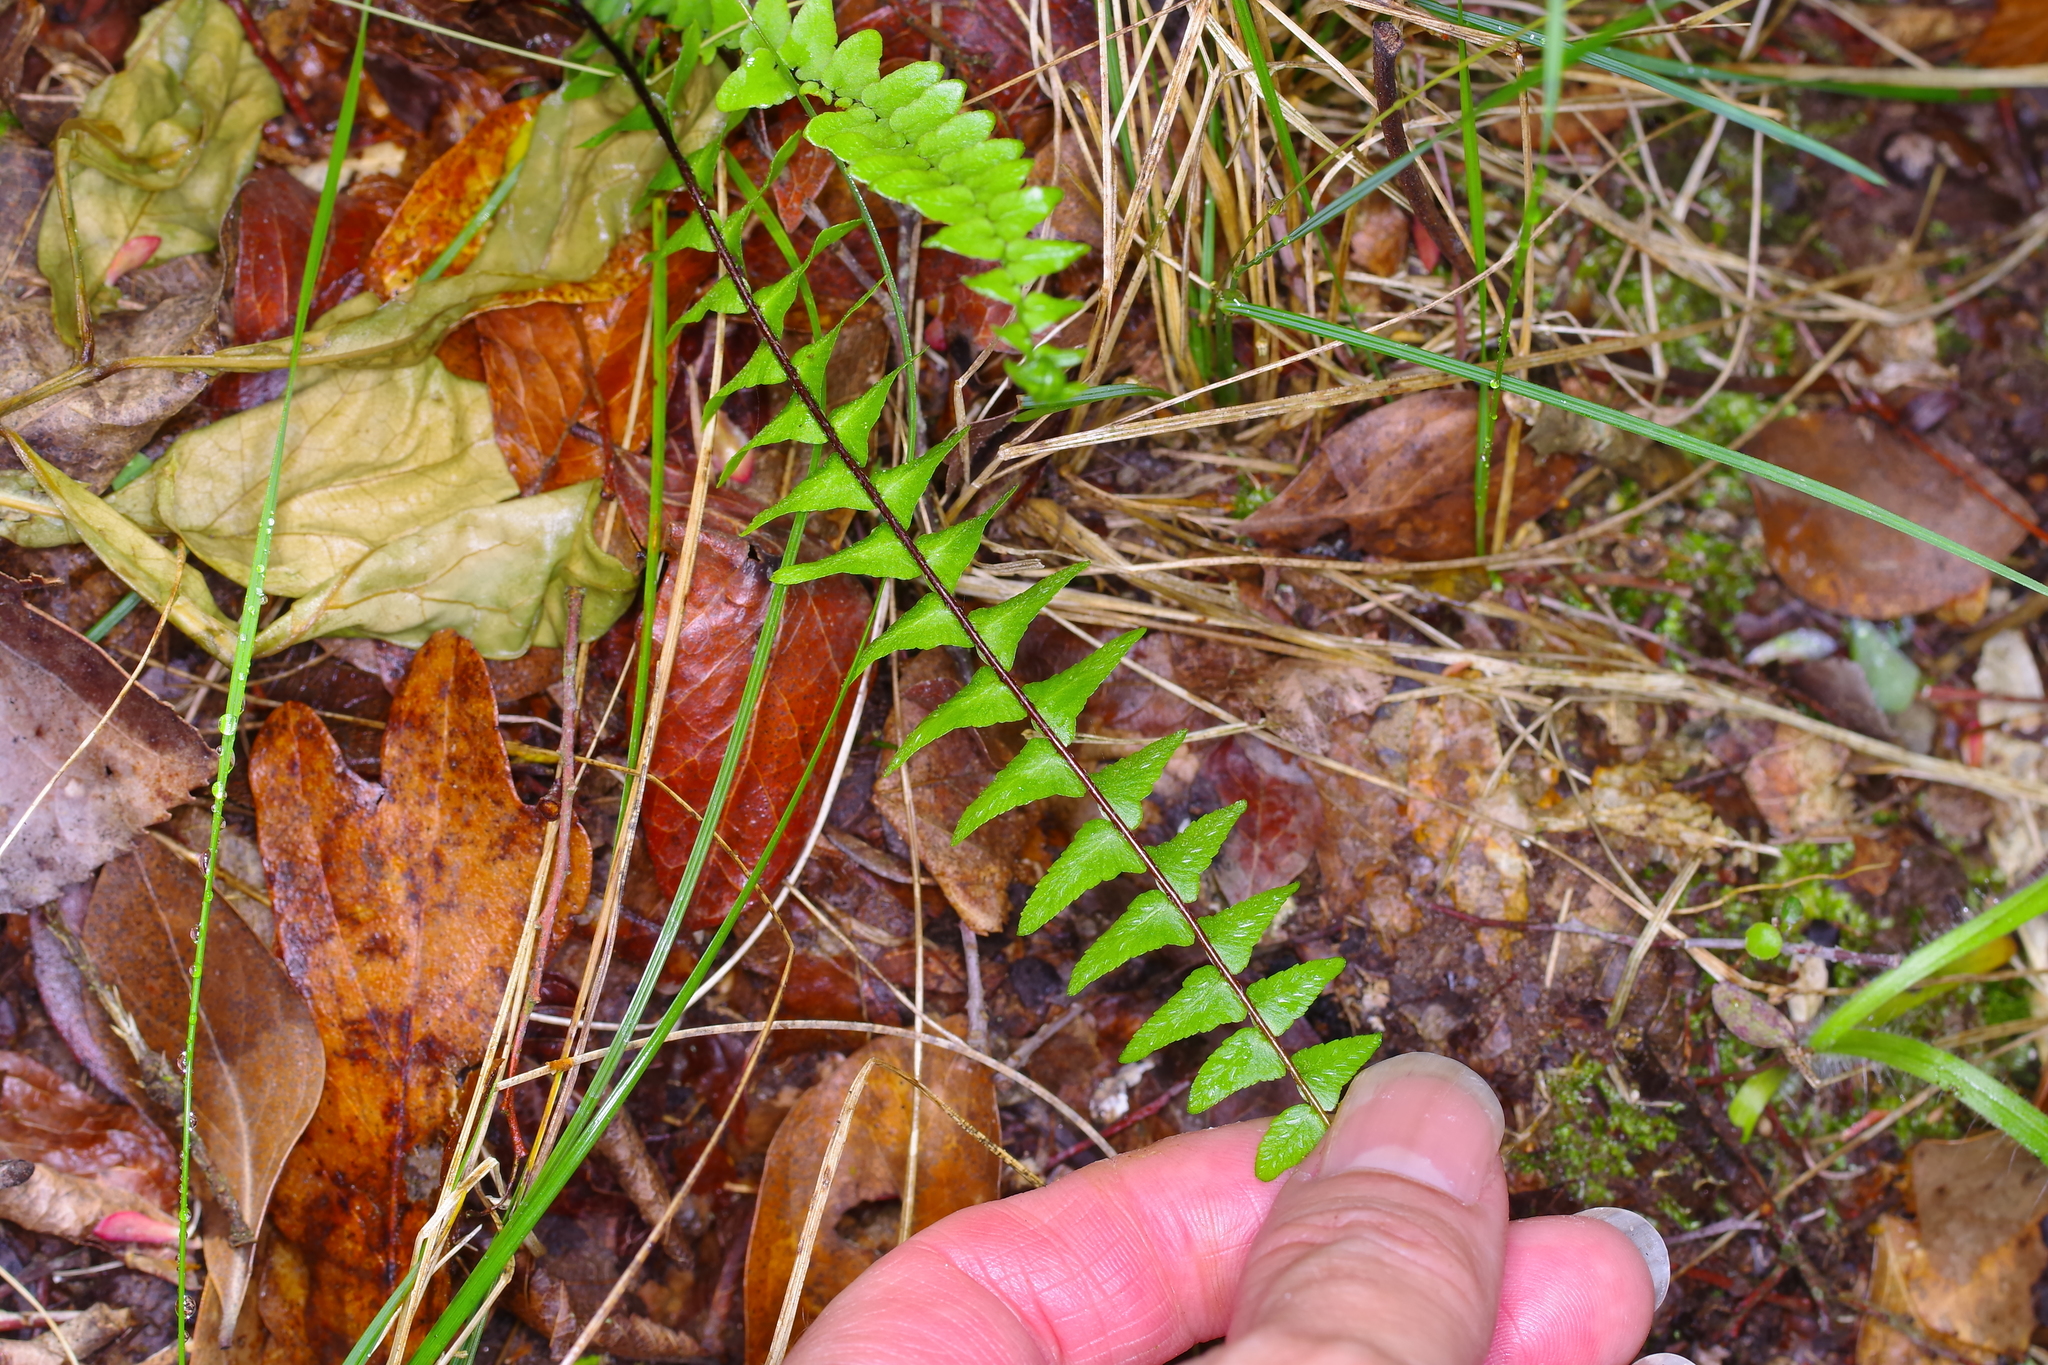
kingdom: Plantae
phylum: Tracheophyta
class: Polypodiopsida
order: Polypodiales
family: Aspleniaceae
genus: Asplenium
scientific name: Asplenium platyneuron
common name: Ebony spleenwort
